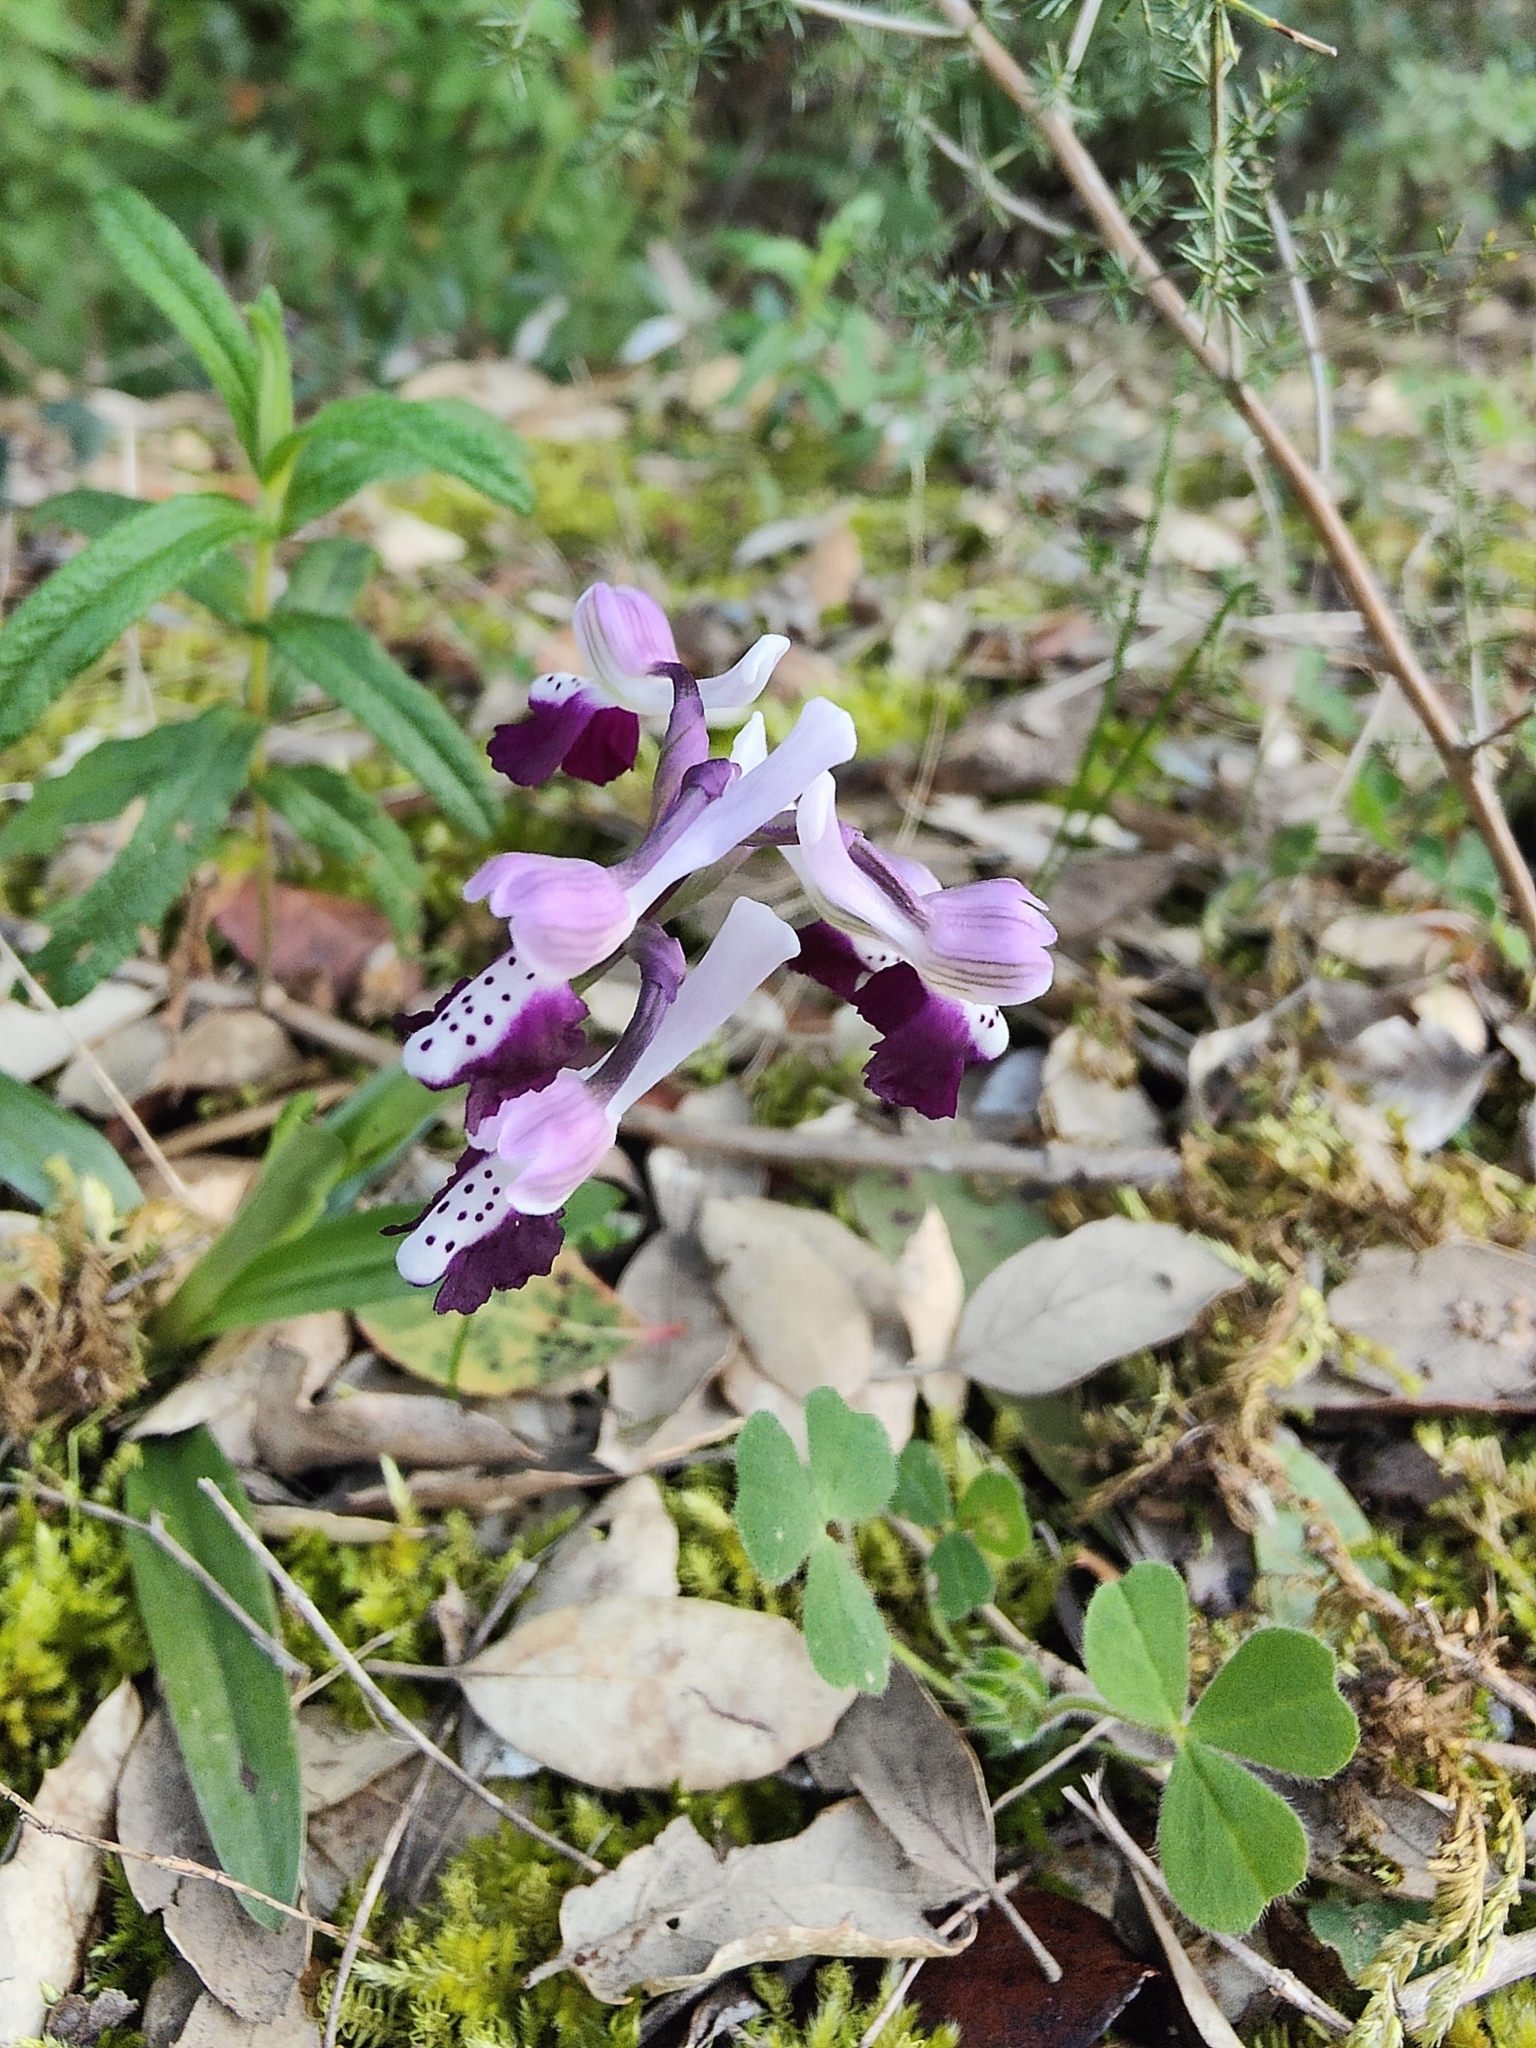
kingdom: Plantae
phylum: Tracheophyta
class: Liliopsida
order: Asparagales
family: Orchidaceae
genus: Anacamptis
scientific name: Anacamptis morio
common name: Green-winged orchid
